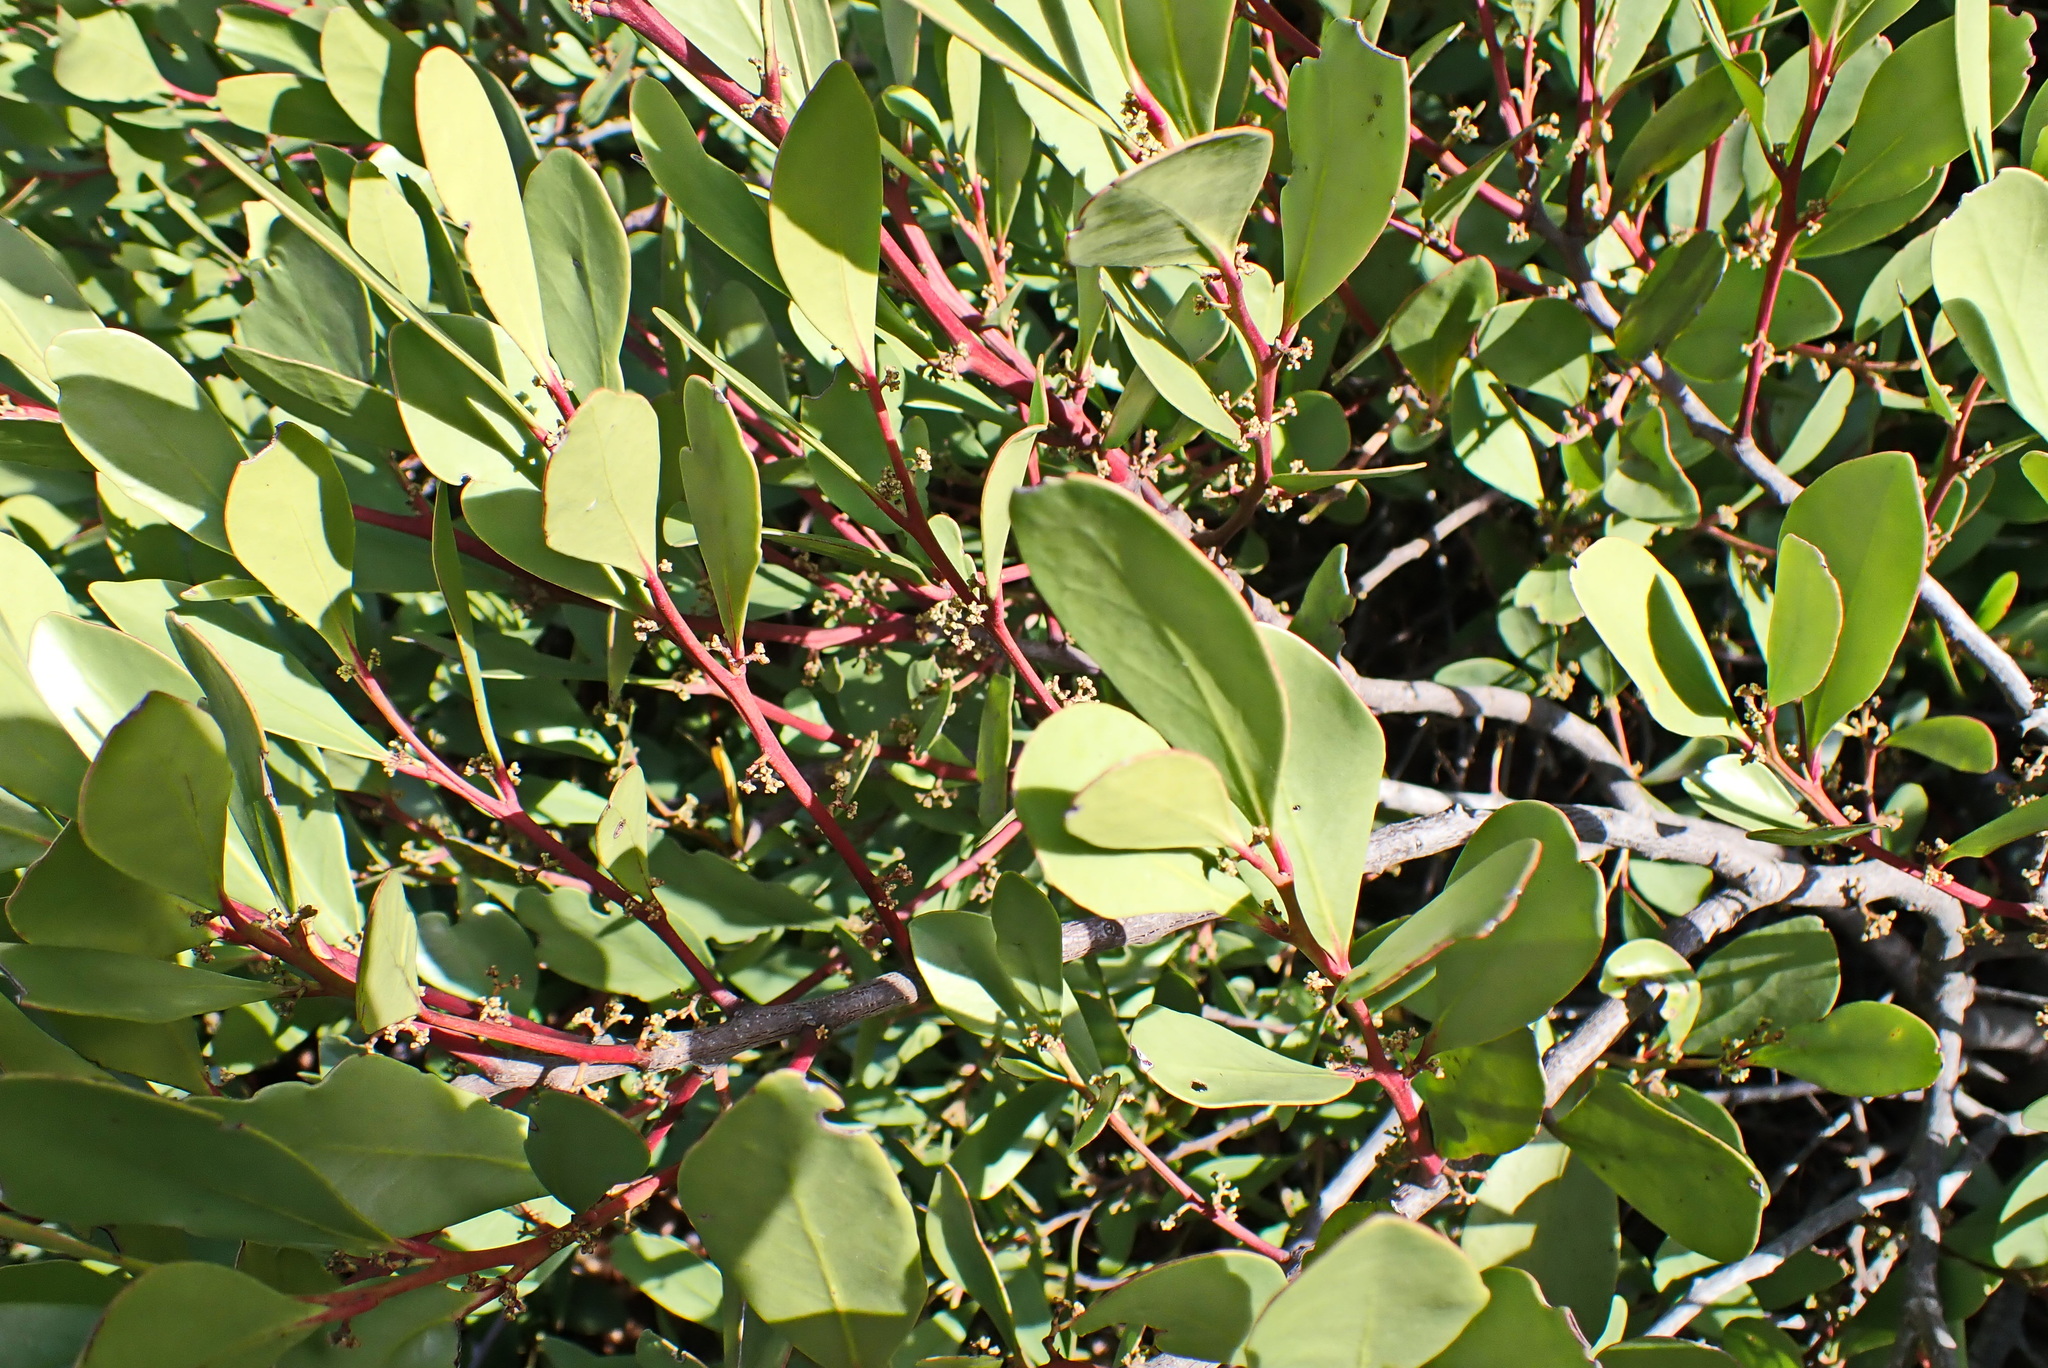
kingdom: Plantae
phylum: Tracheophyta
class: Magnoliopsida
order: Celastrales
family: Celastraceae
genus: Gymnosporia
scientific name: Gymnosporia laurina
